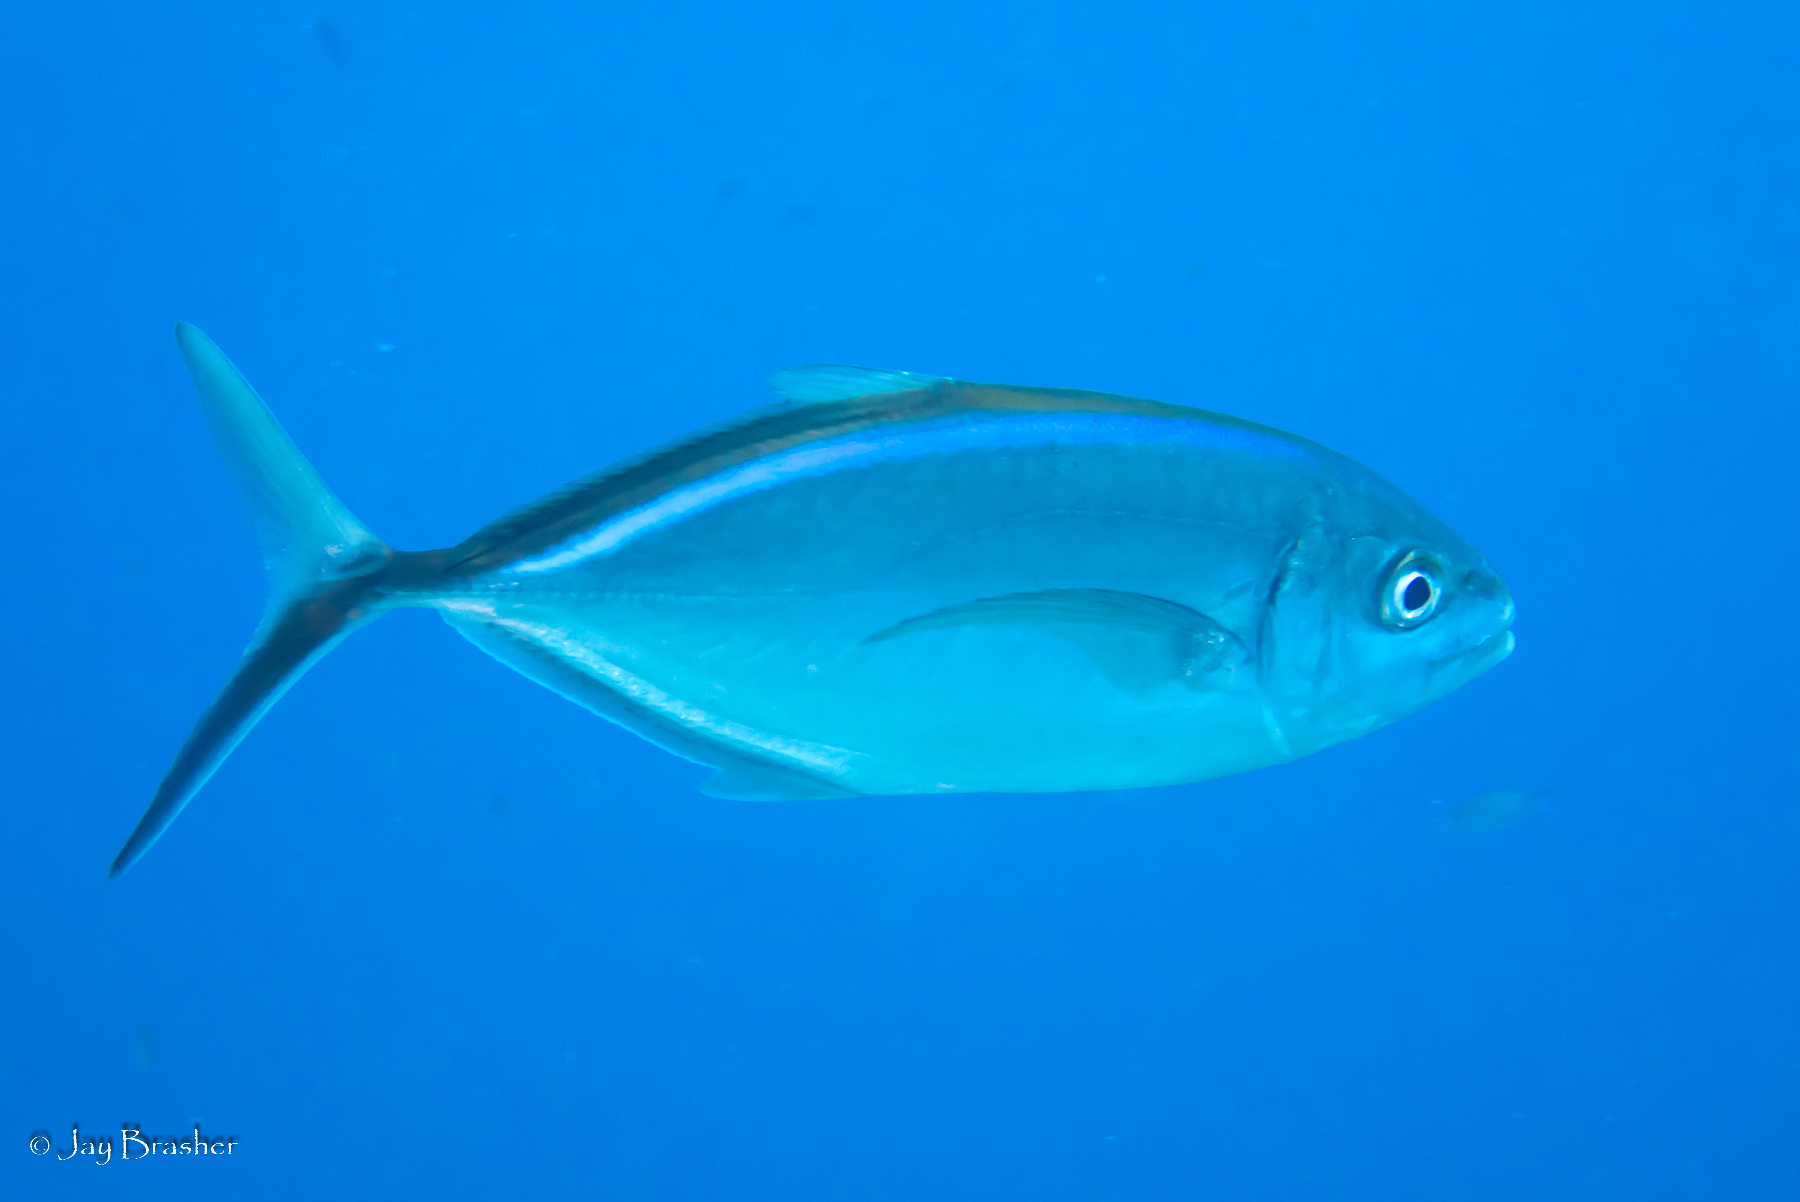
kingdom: Animalia
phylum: Chordata
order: Perciformes
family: Carangidae
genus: Caranx
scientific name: Caranx ruber
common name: Bar jack
